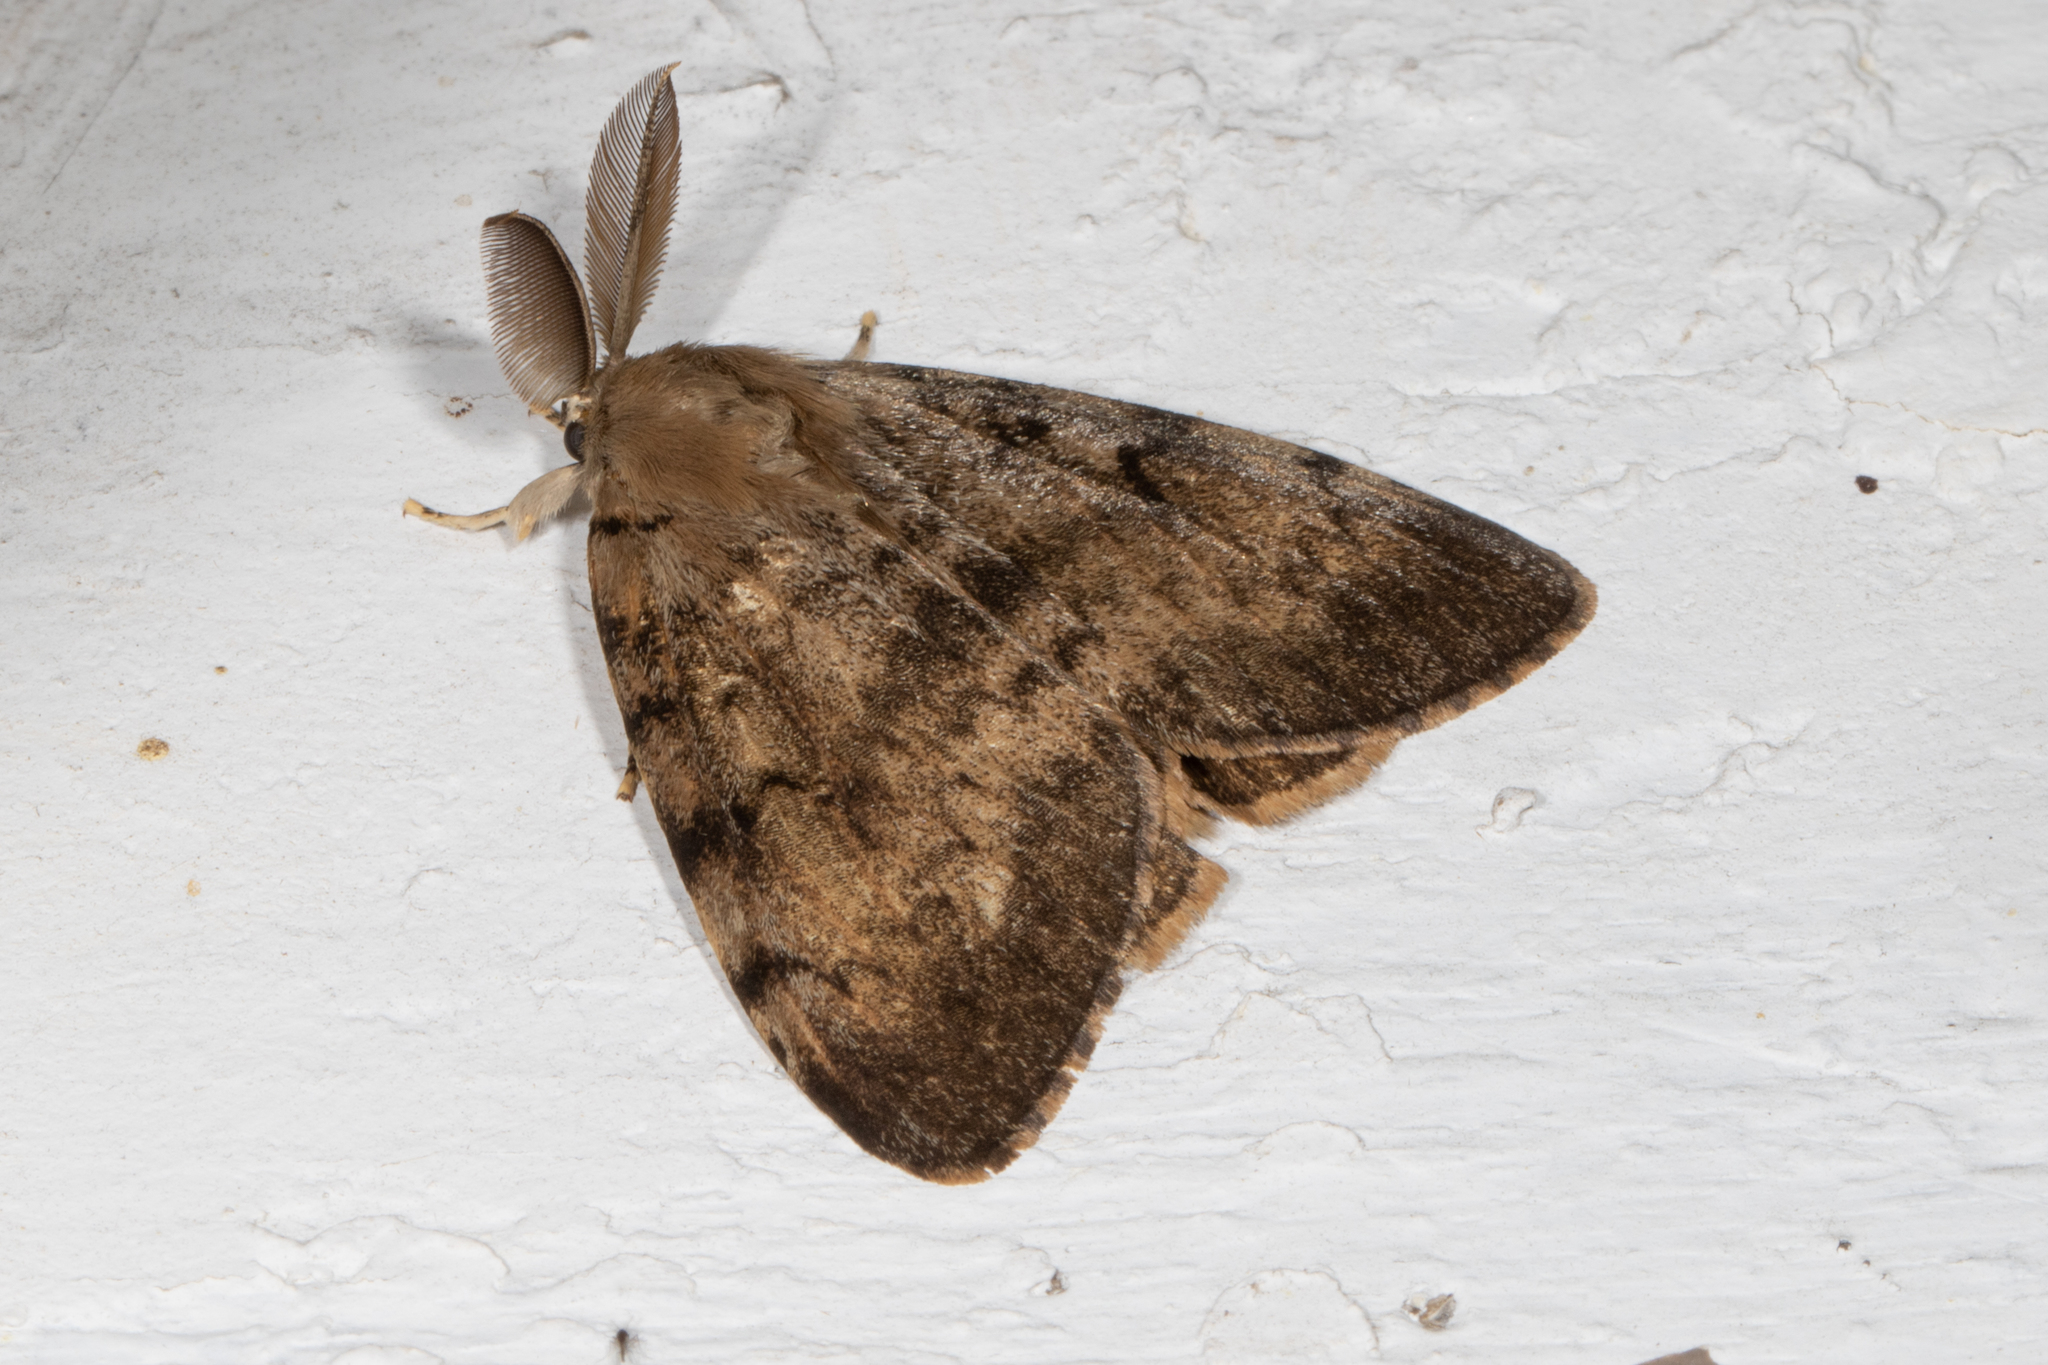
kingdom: Animalia
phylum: Arthropoda
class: Insecta
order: Lepidoptera
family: Erebidae
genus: Lymantria
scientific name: Lymantria dispar
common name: Gypsy moth
